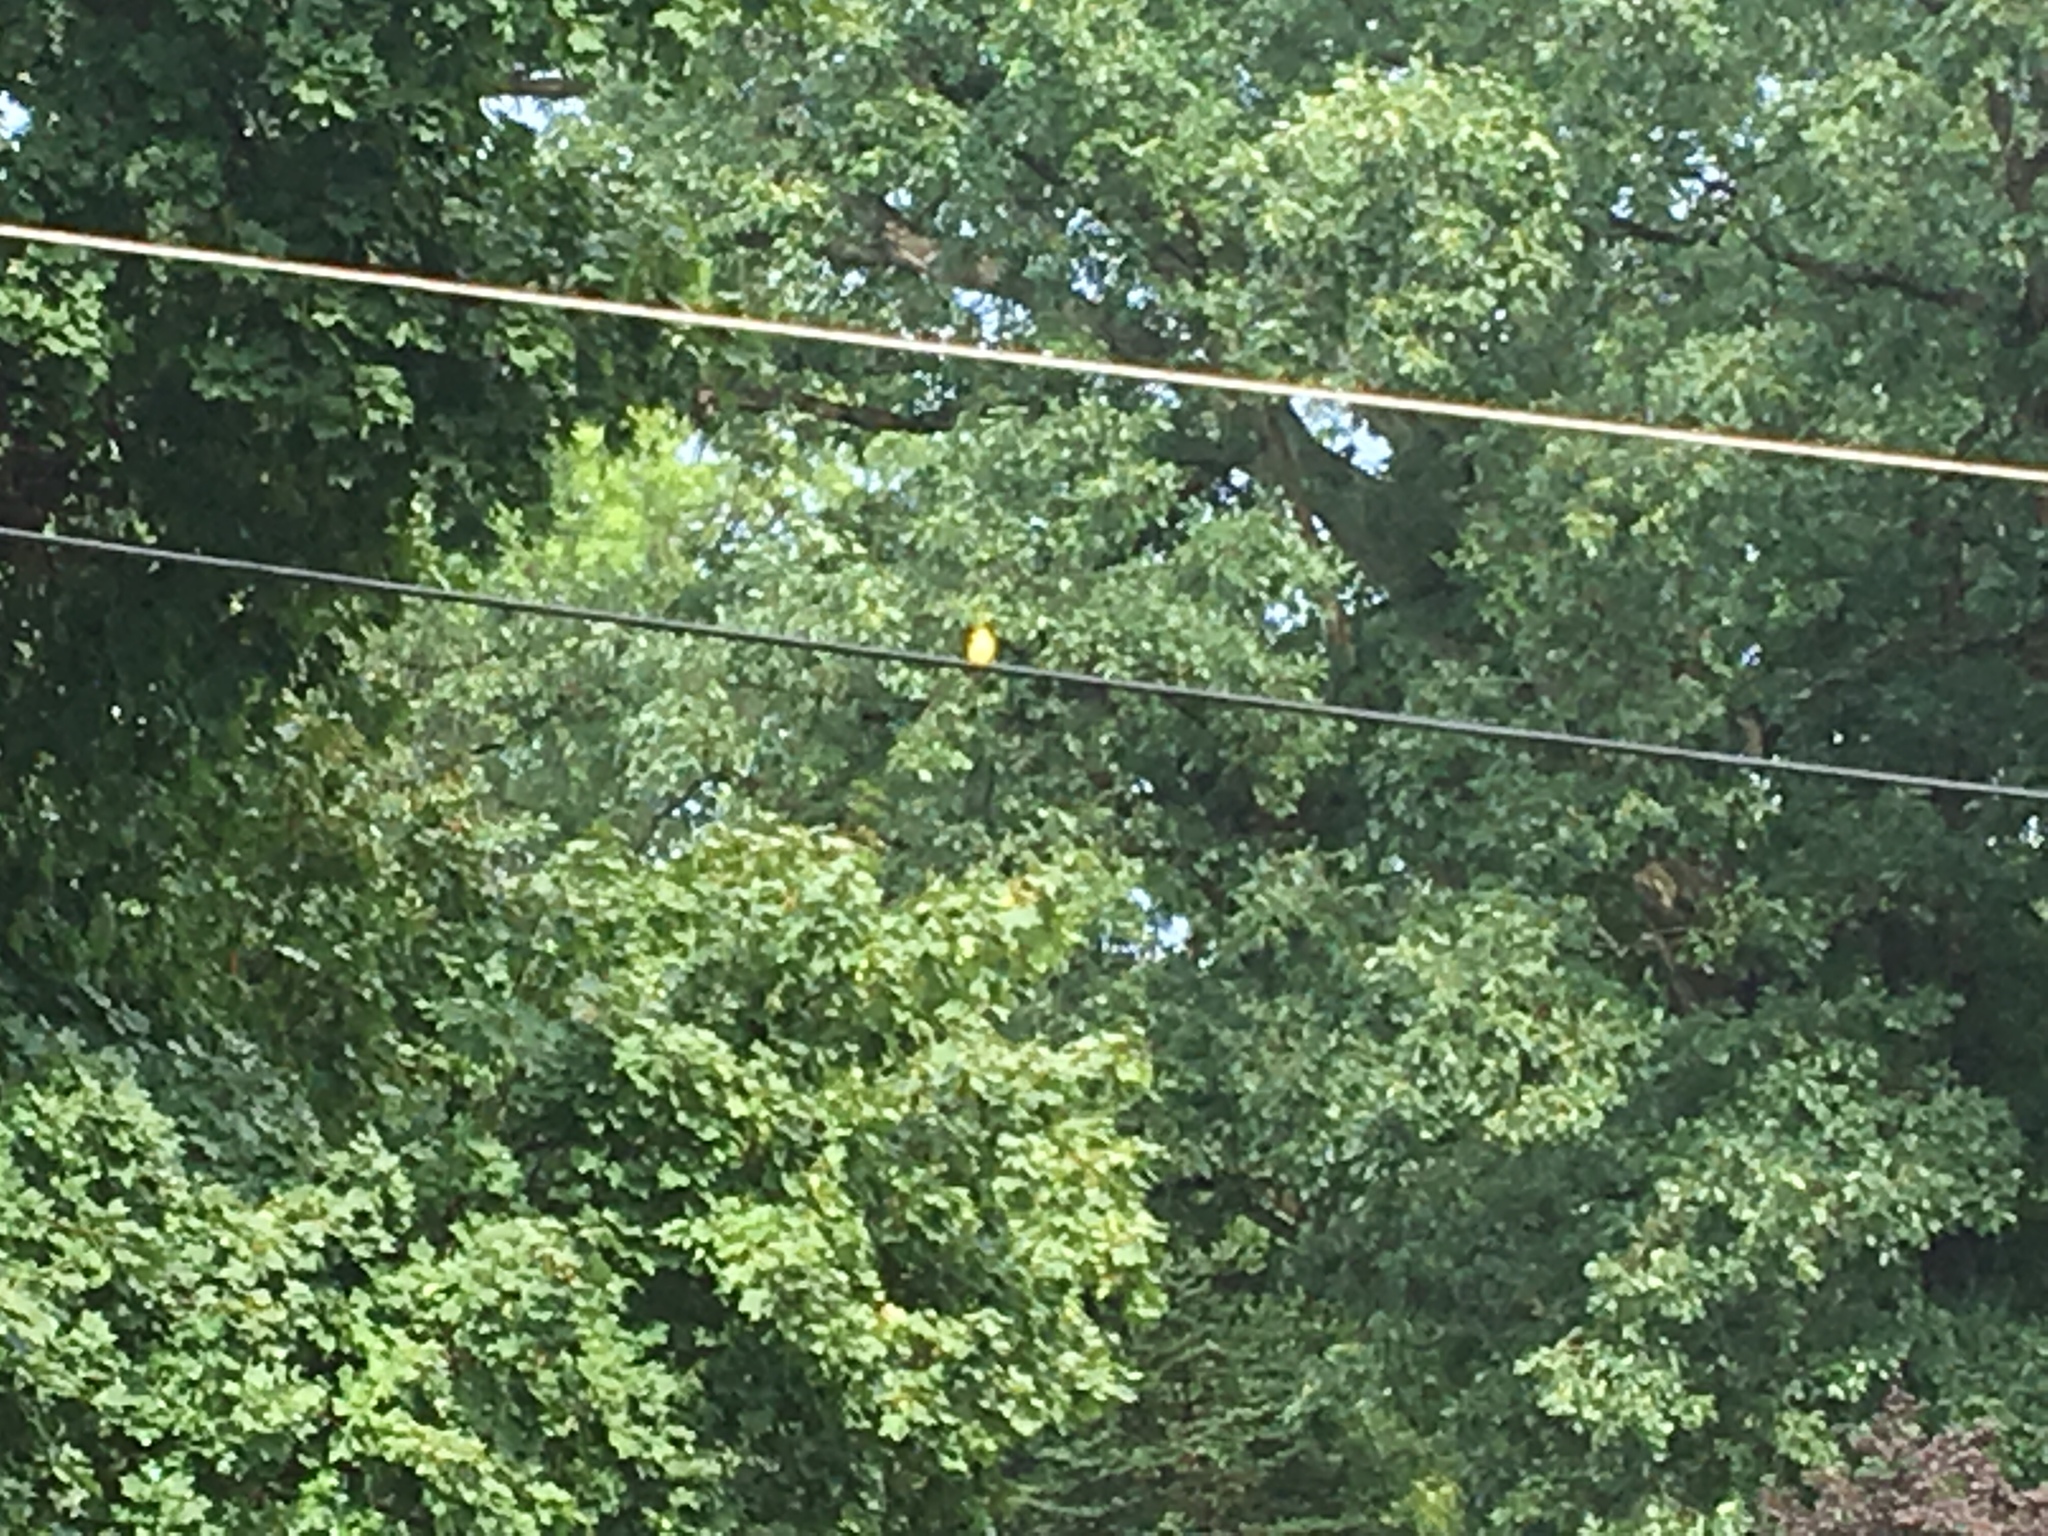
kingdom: Animalia
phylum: Chordata
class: Aves
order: Passeriformes
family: Fringillidae
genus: Spinus
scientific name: Spinus tristis
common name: American goldfinch
